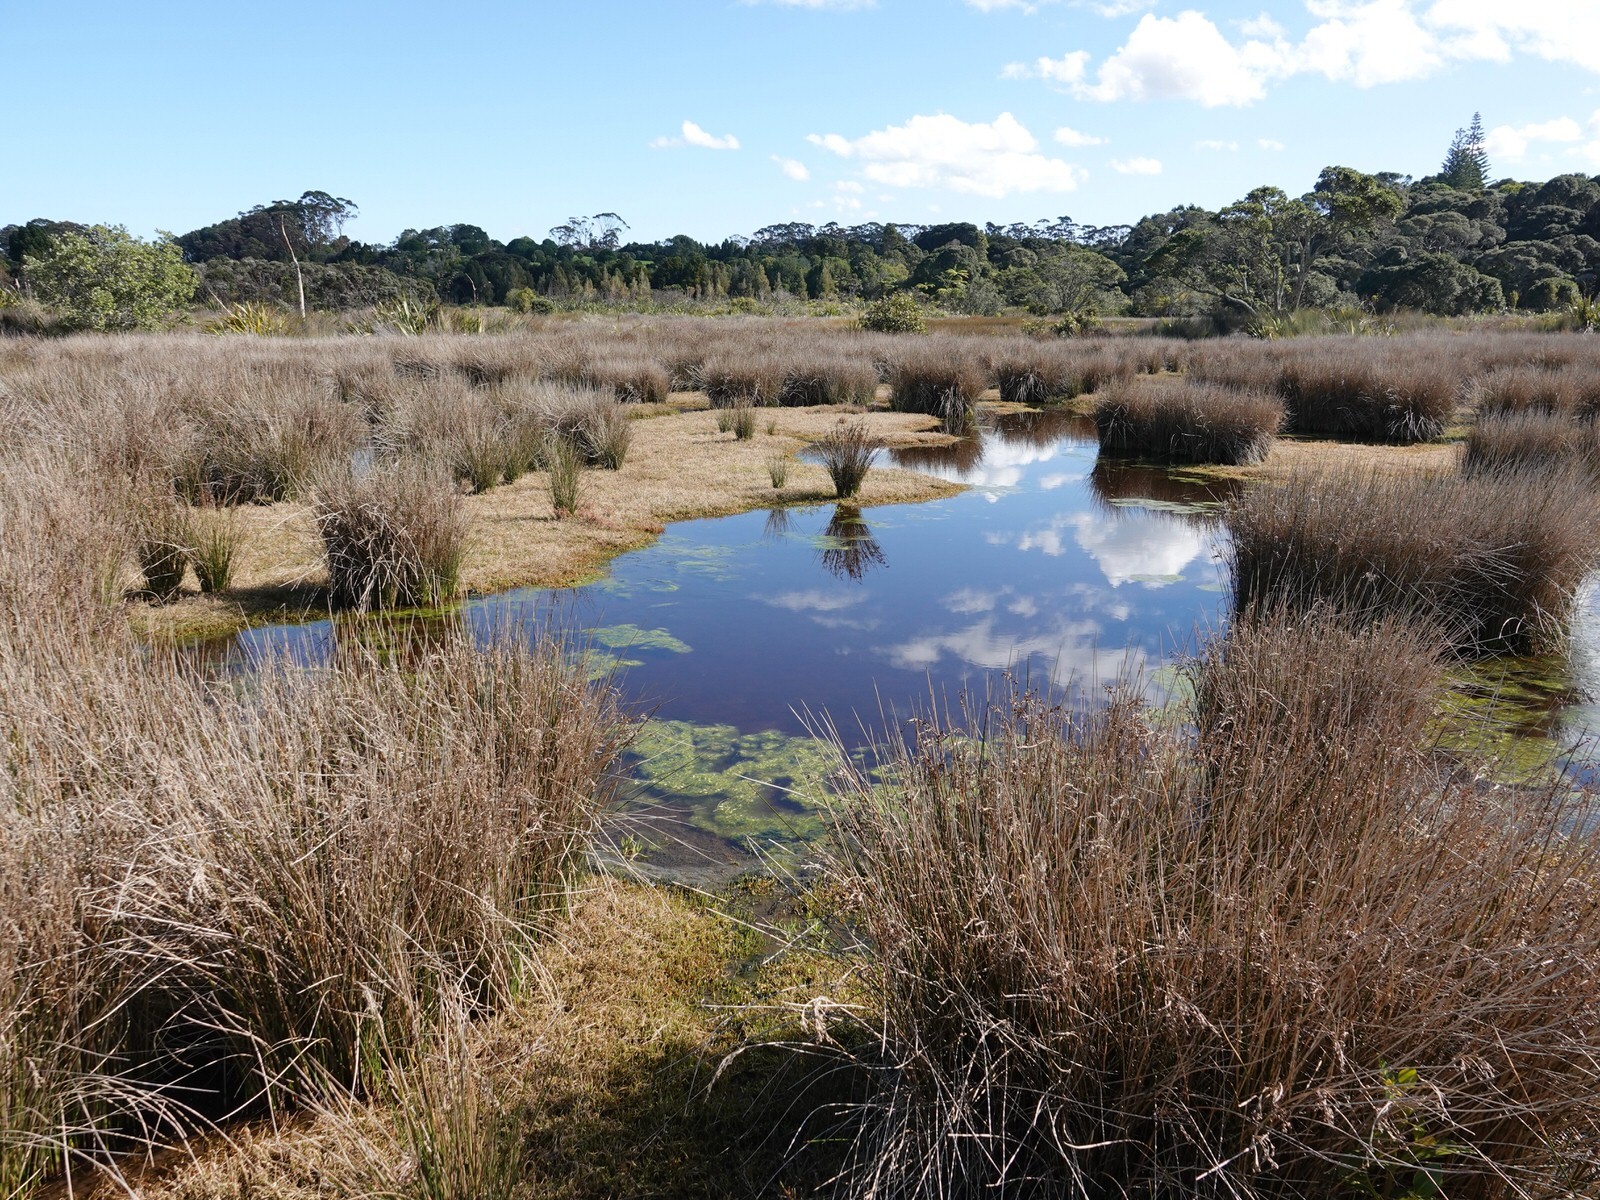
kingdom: Plantae
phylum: Tracheophyta
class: Liliopsida
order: Poales
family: Juncaceae
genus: Juncus
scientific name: Juncus kraussii
